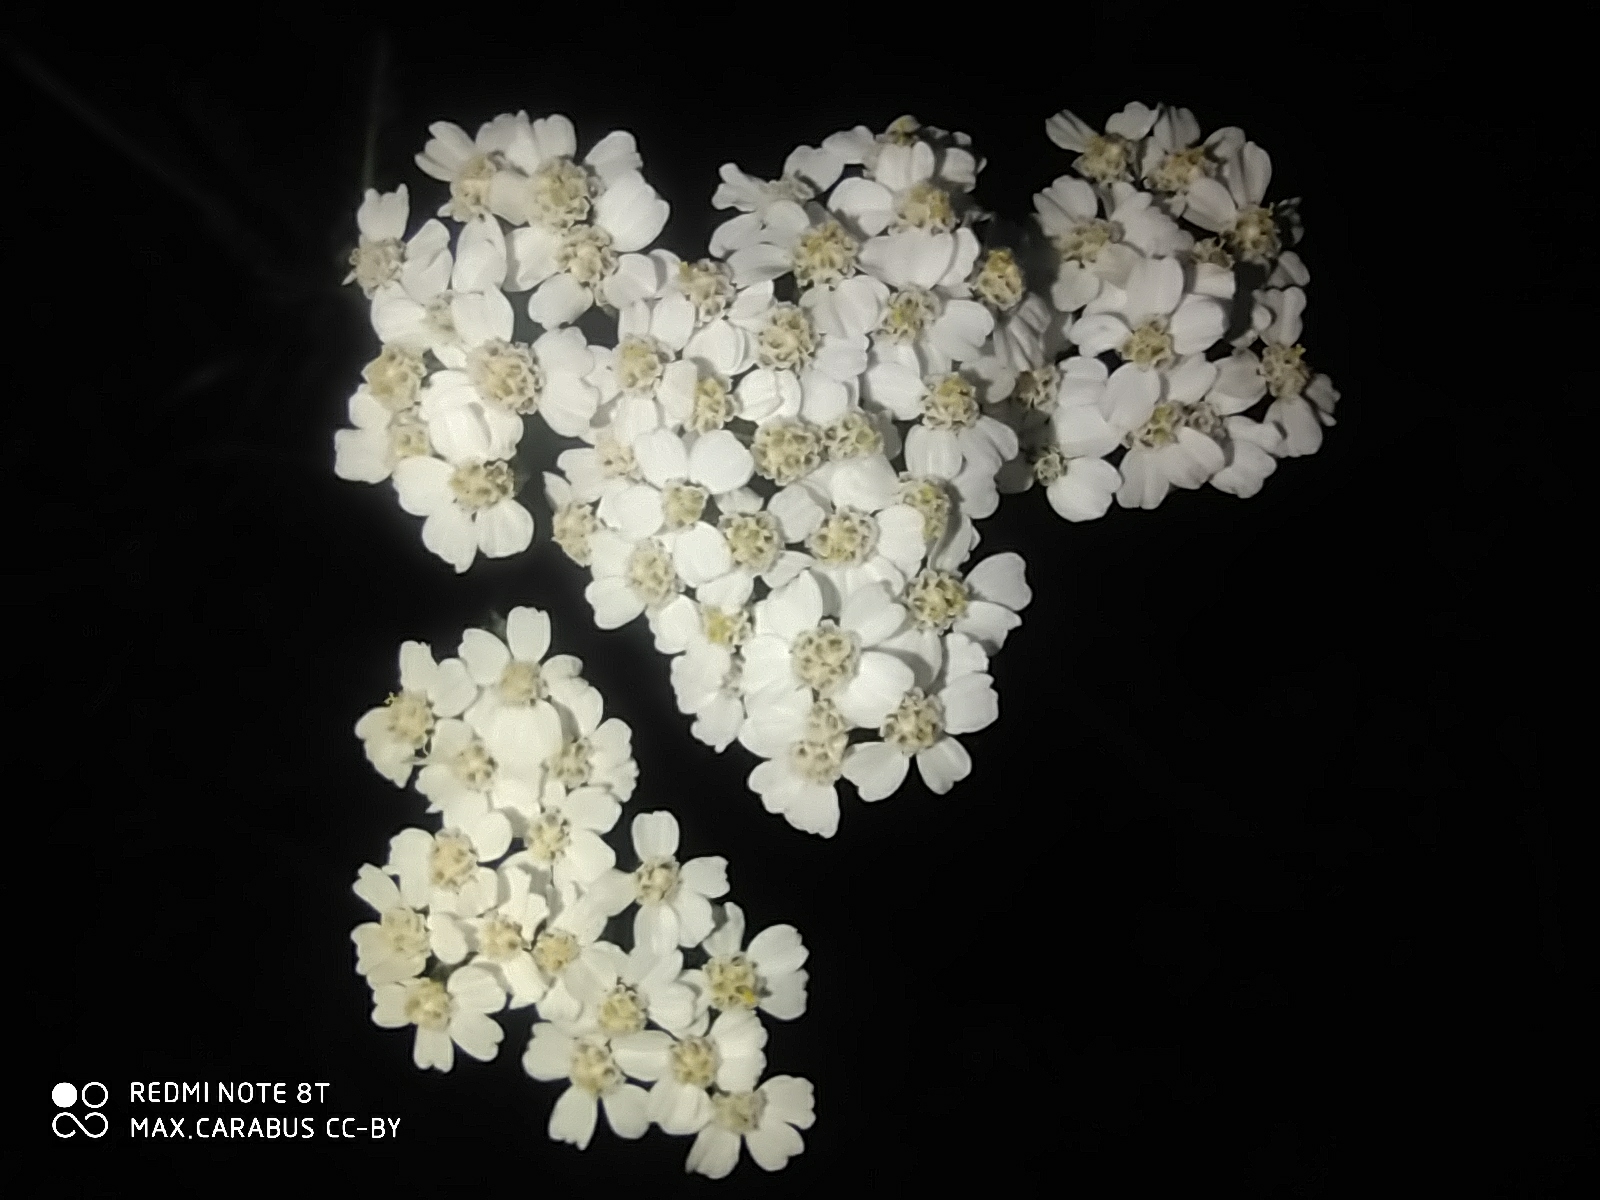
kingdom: Plantae
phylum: Tracheophyta
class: Magnoliopsida
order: Asterales
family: Asteraceae
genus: Achillea
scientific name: Achillea millefolium
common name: Yarrow
